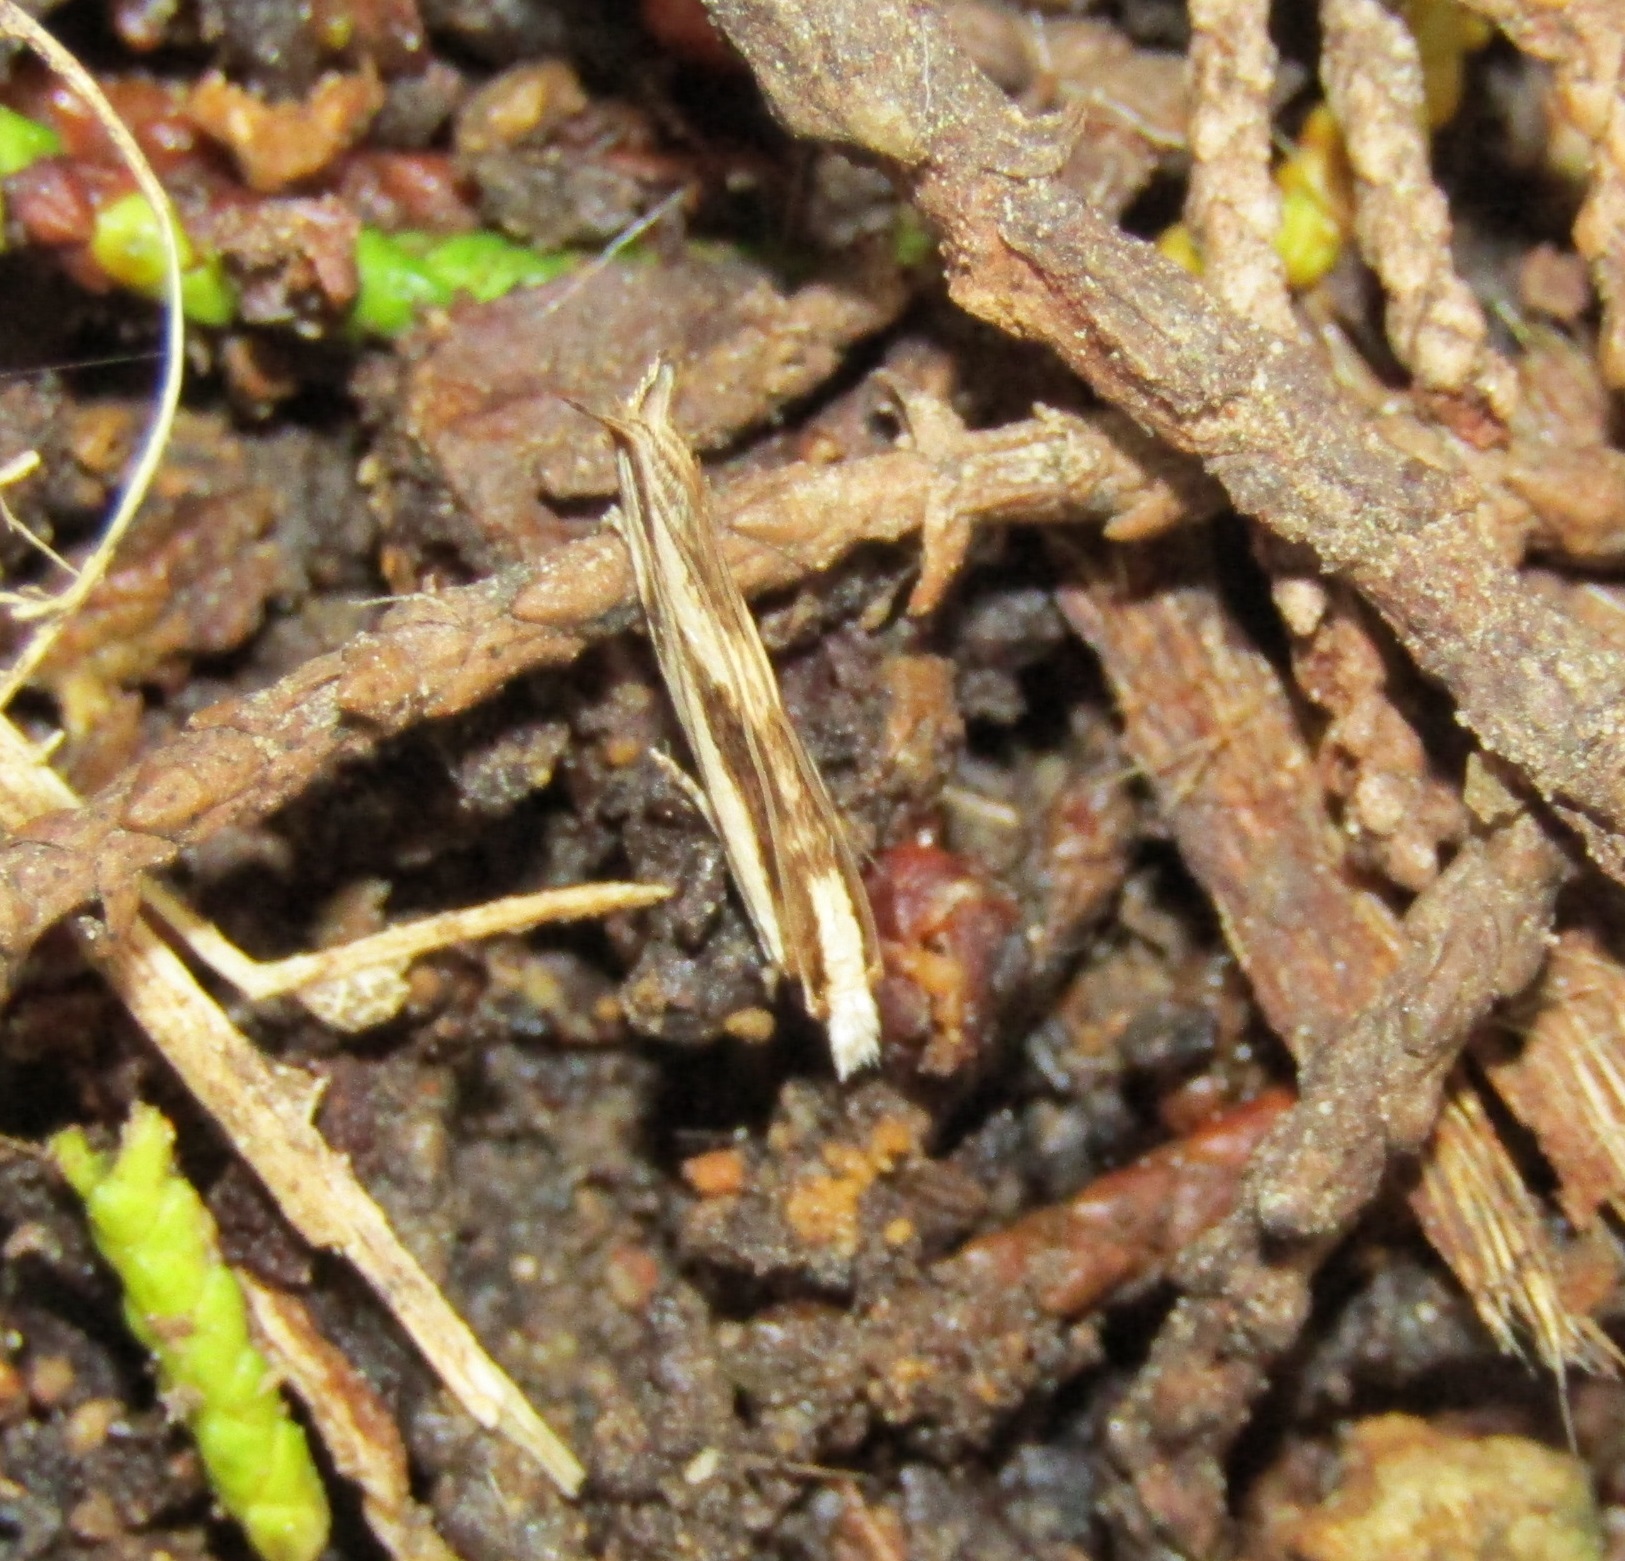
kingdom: Animalia
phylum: Arthropoda
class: Insecta
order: Lepidoptera
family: Tineidae
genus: Erechthias
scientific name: Erechthias chasmatias
